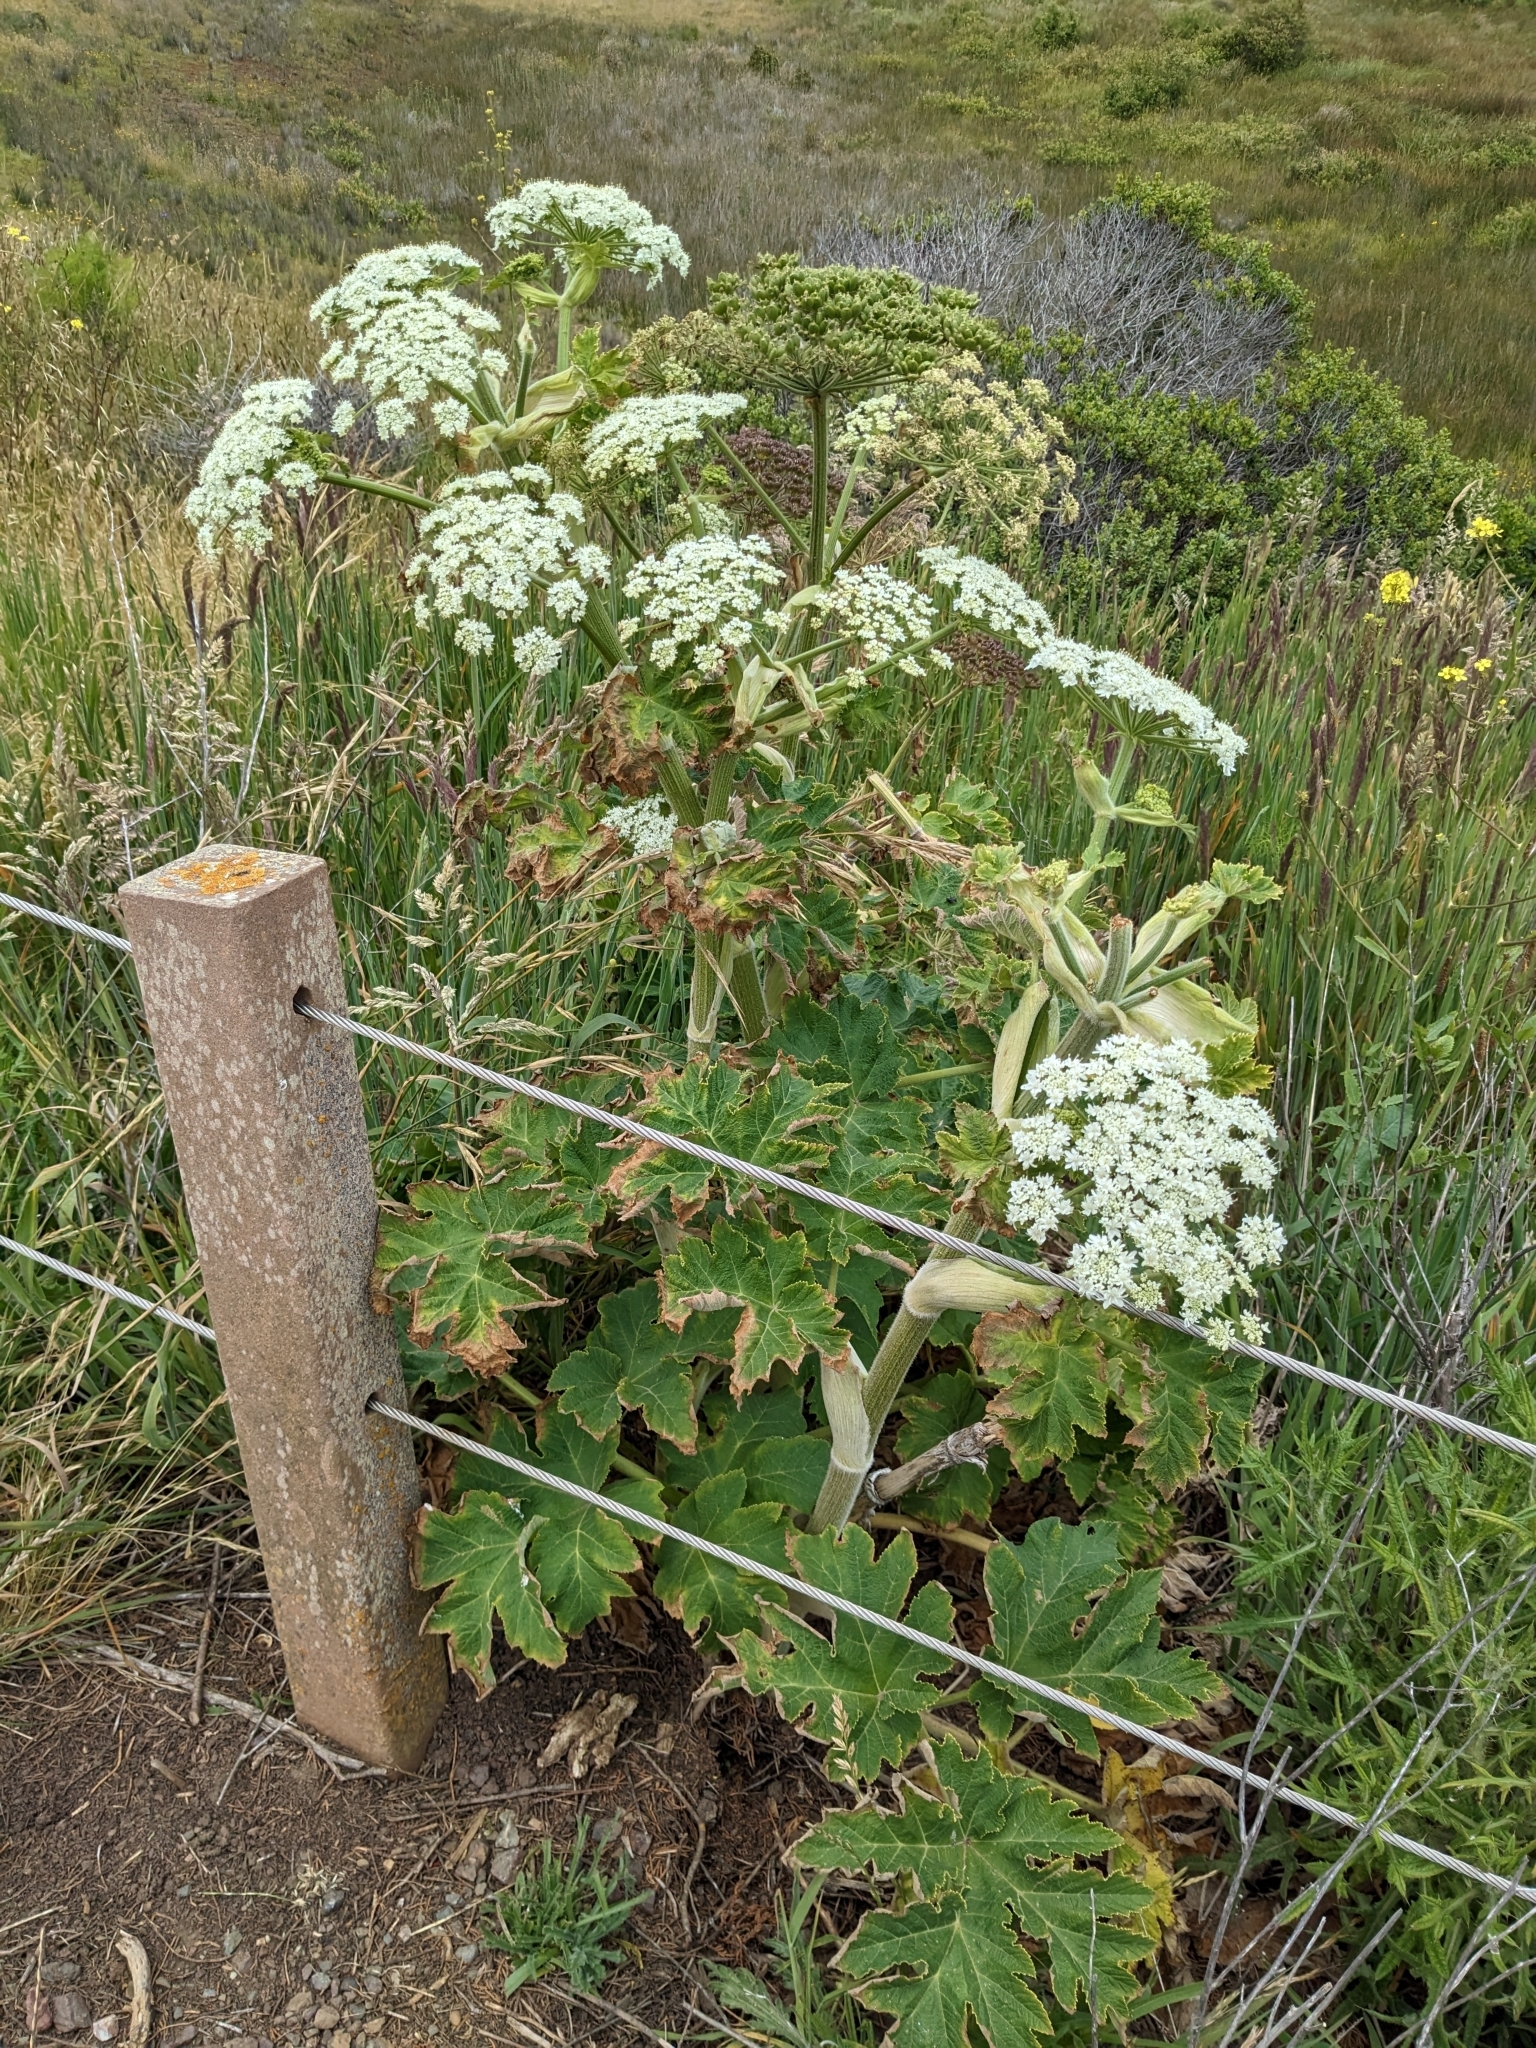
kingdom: Plantae
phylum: Tracheophyta
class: Magnoliopsida
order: Apiales
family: Apiaceae
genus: Heracleum
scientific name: Heracleum maximum
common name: American cow parsnip
